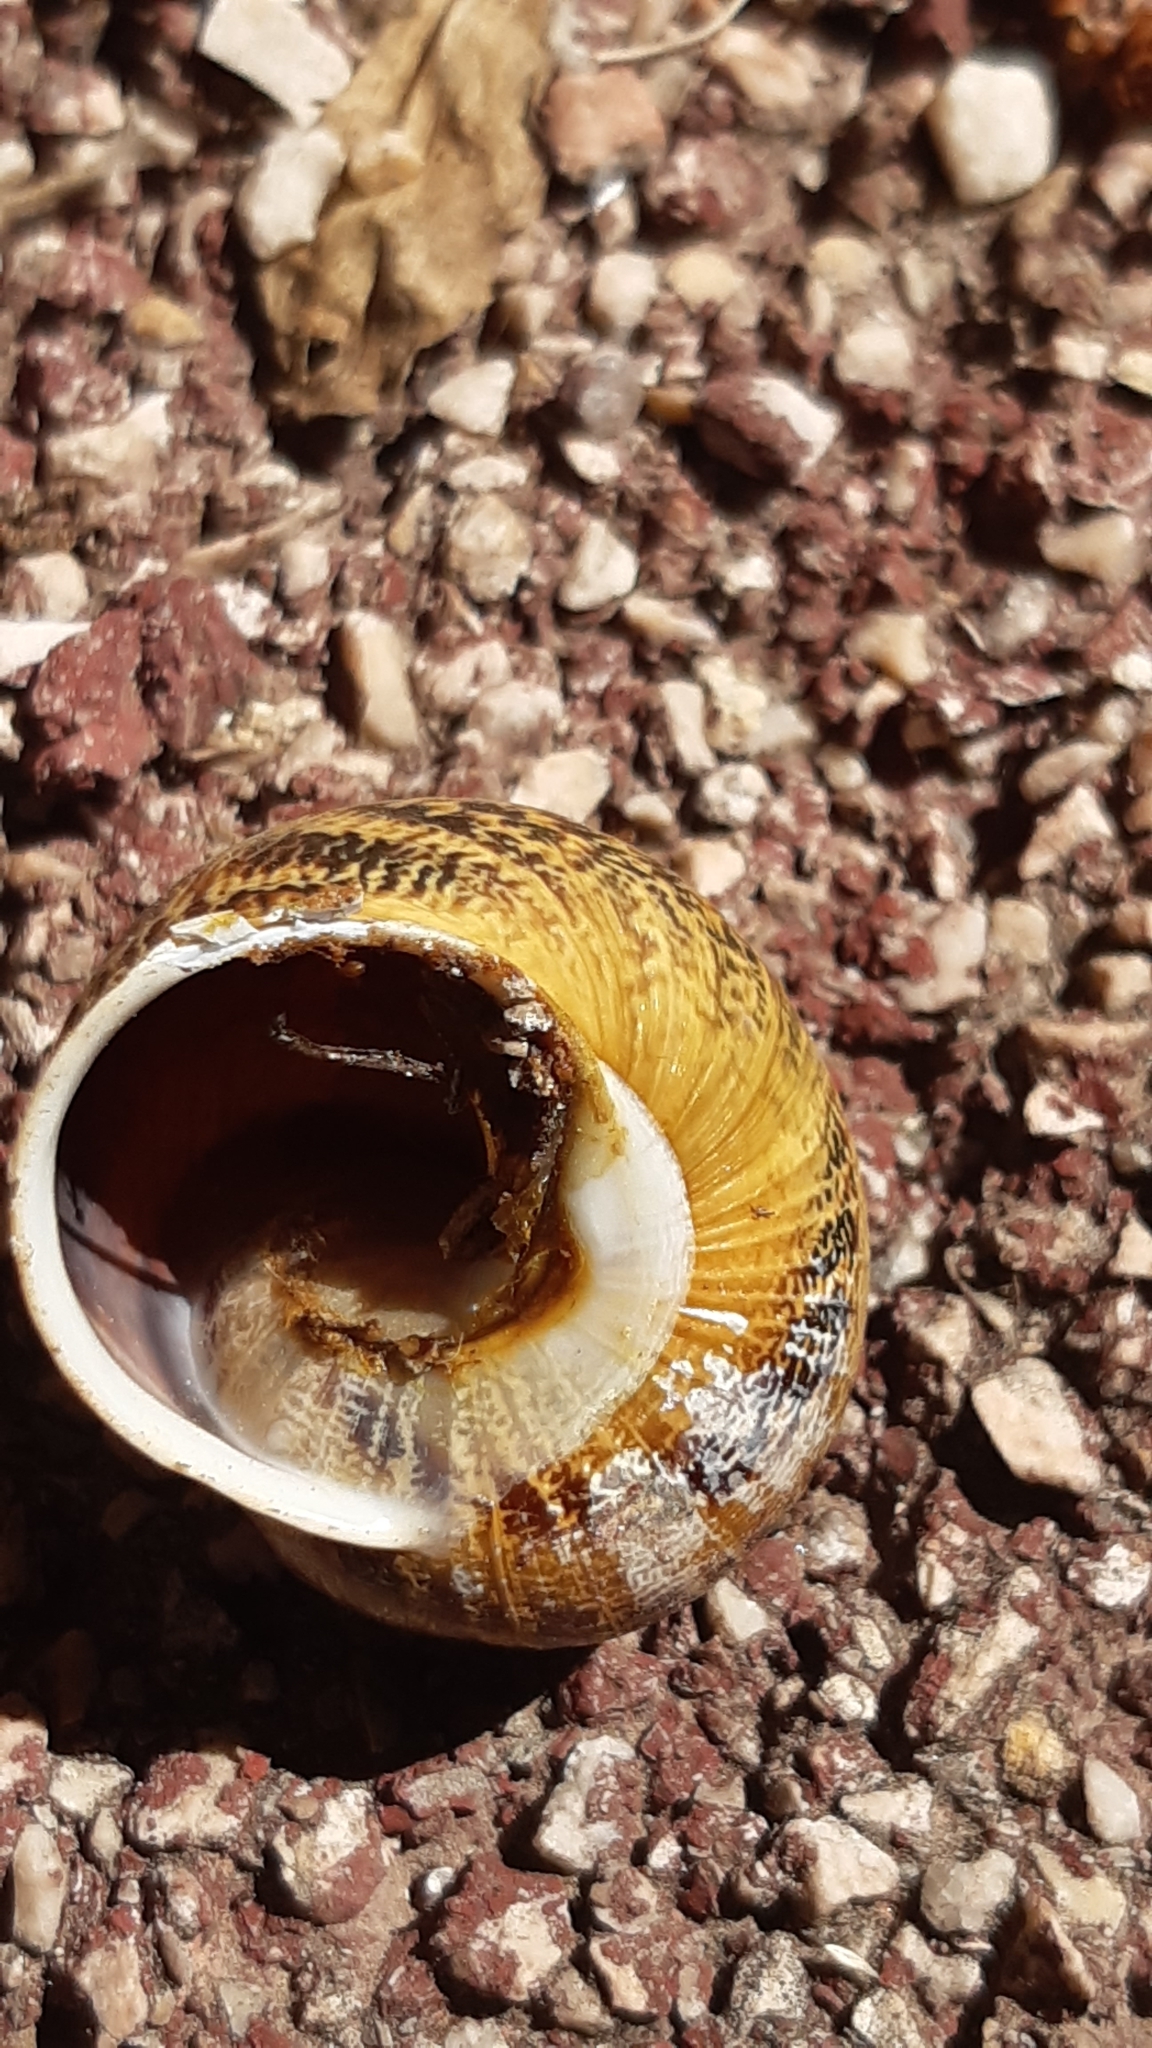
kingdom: Animalia
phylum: Mollusca
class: Gastropoda
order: Stylommatophora
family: Helicidae
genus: Cornu
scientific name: Cornu aspersum
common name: Brown garden snail
